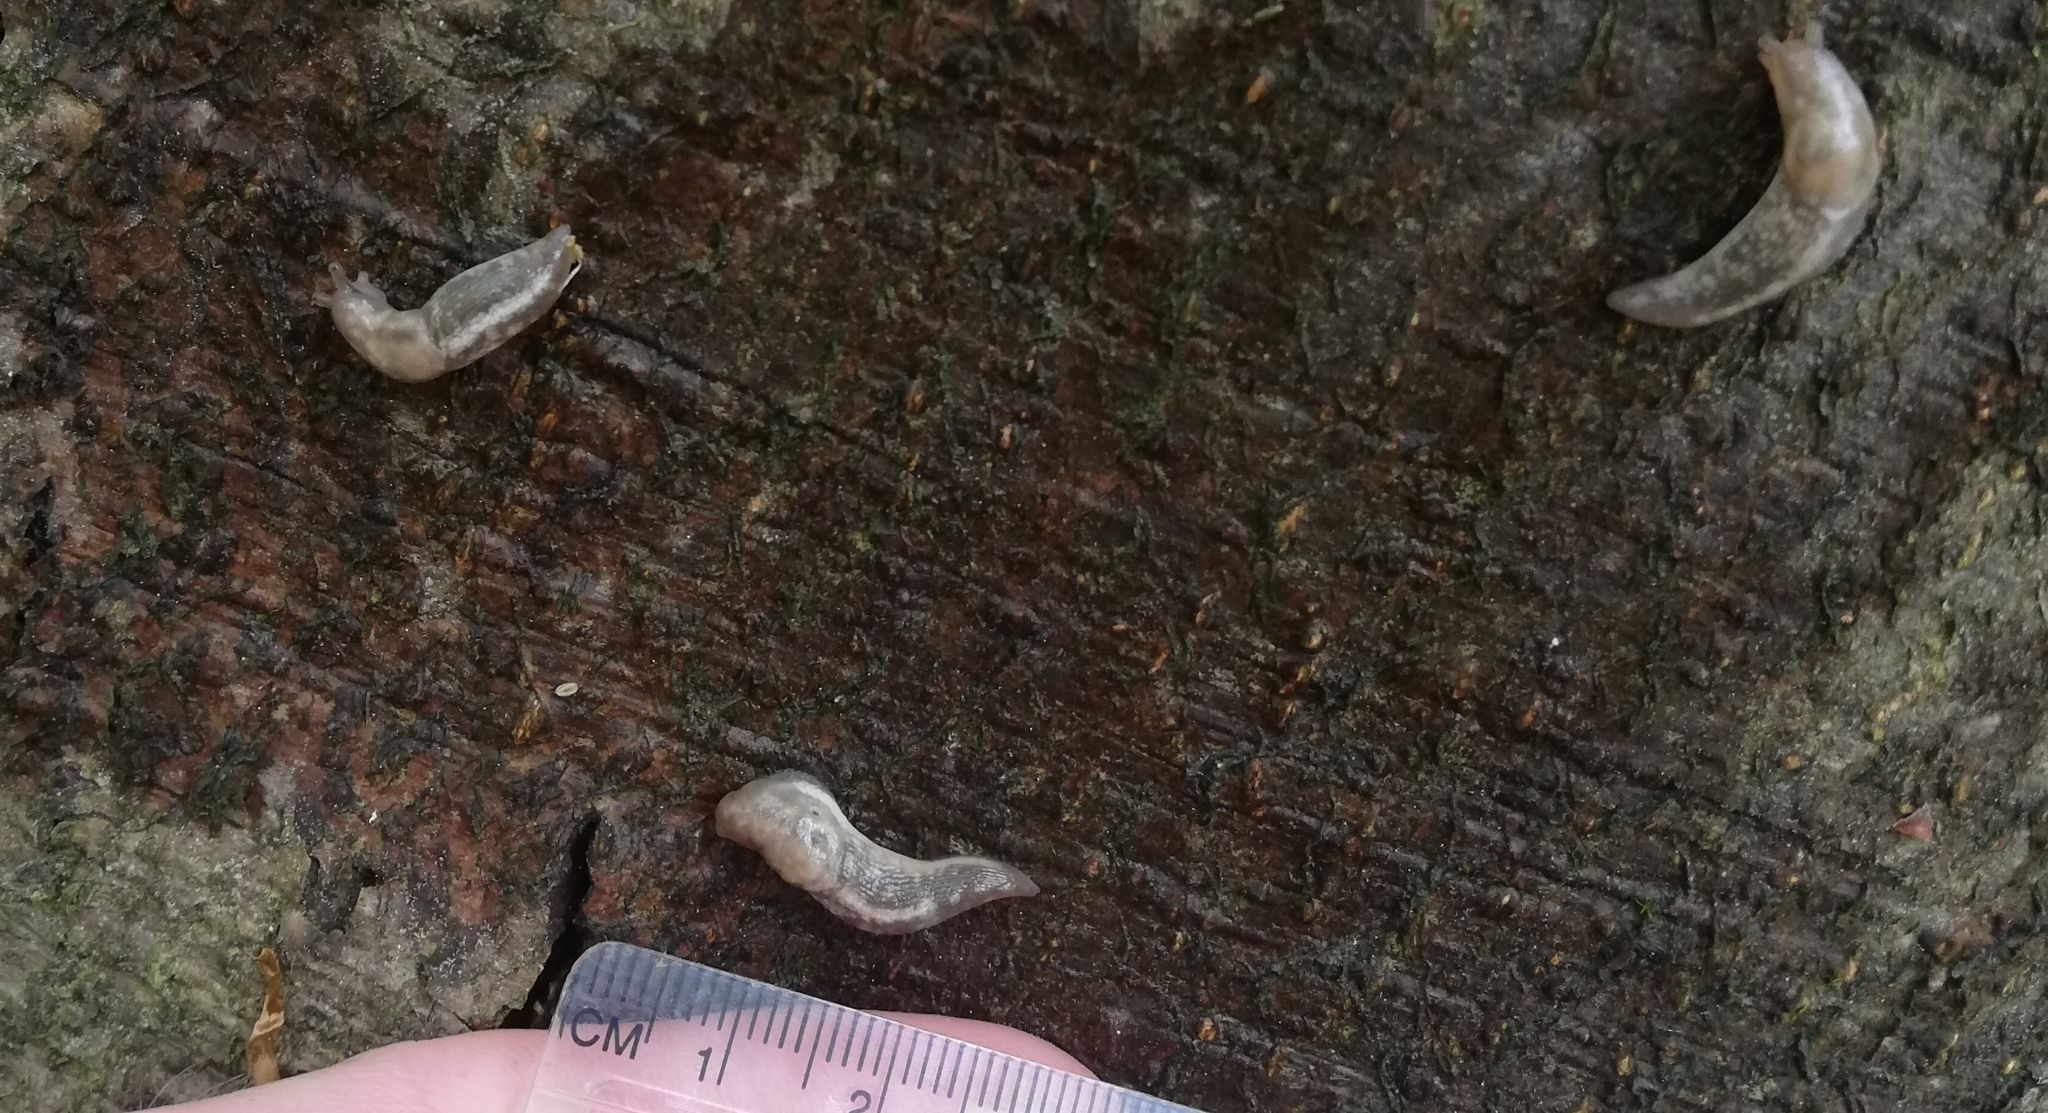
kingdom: Animalia
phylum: Mollusca
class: Gastropoda
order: Stylommatophora
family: Limacidae
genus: Lehmannia
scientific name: Lehmannia marginata
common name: Tree slug
